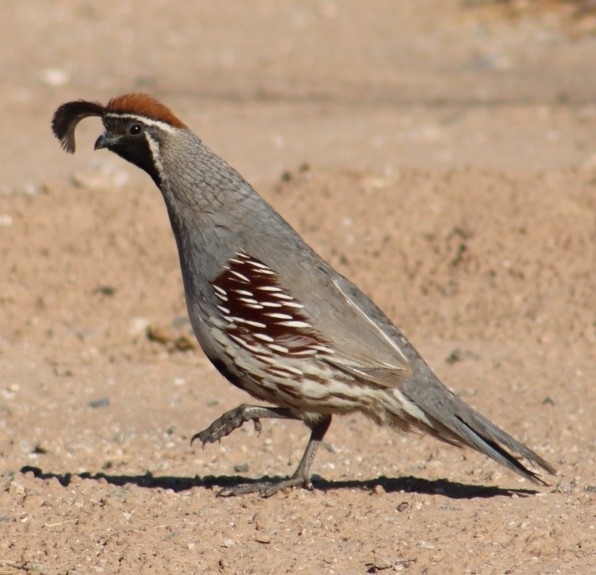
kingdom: Animalia
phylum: Chordata
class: Aves
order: Galliformes
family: Odontophoridae
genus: Callipepla
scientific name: Callipepla gambelii
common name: Gambel's quail
